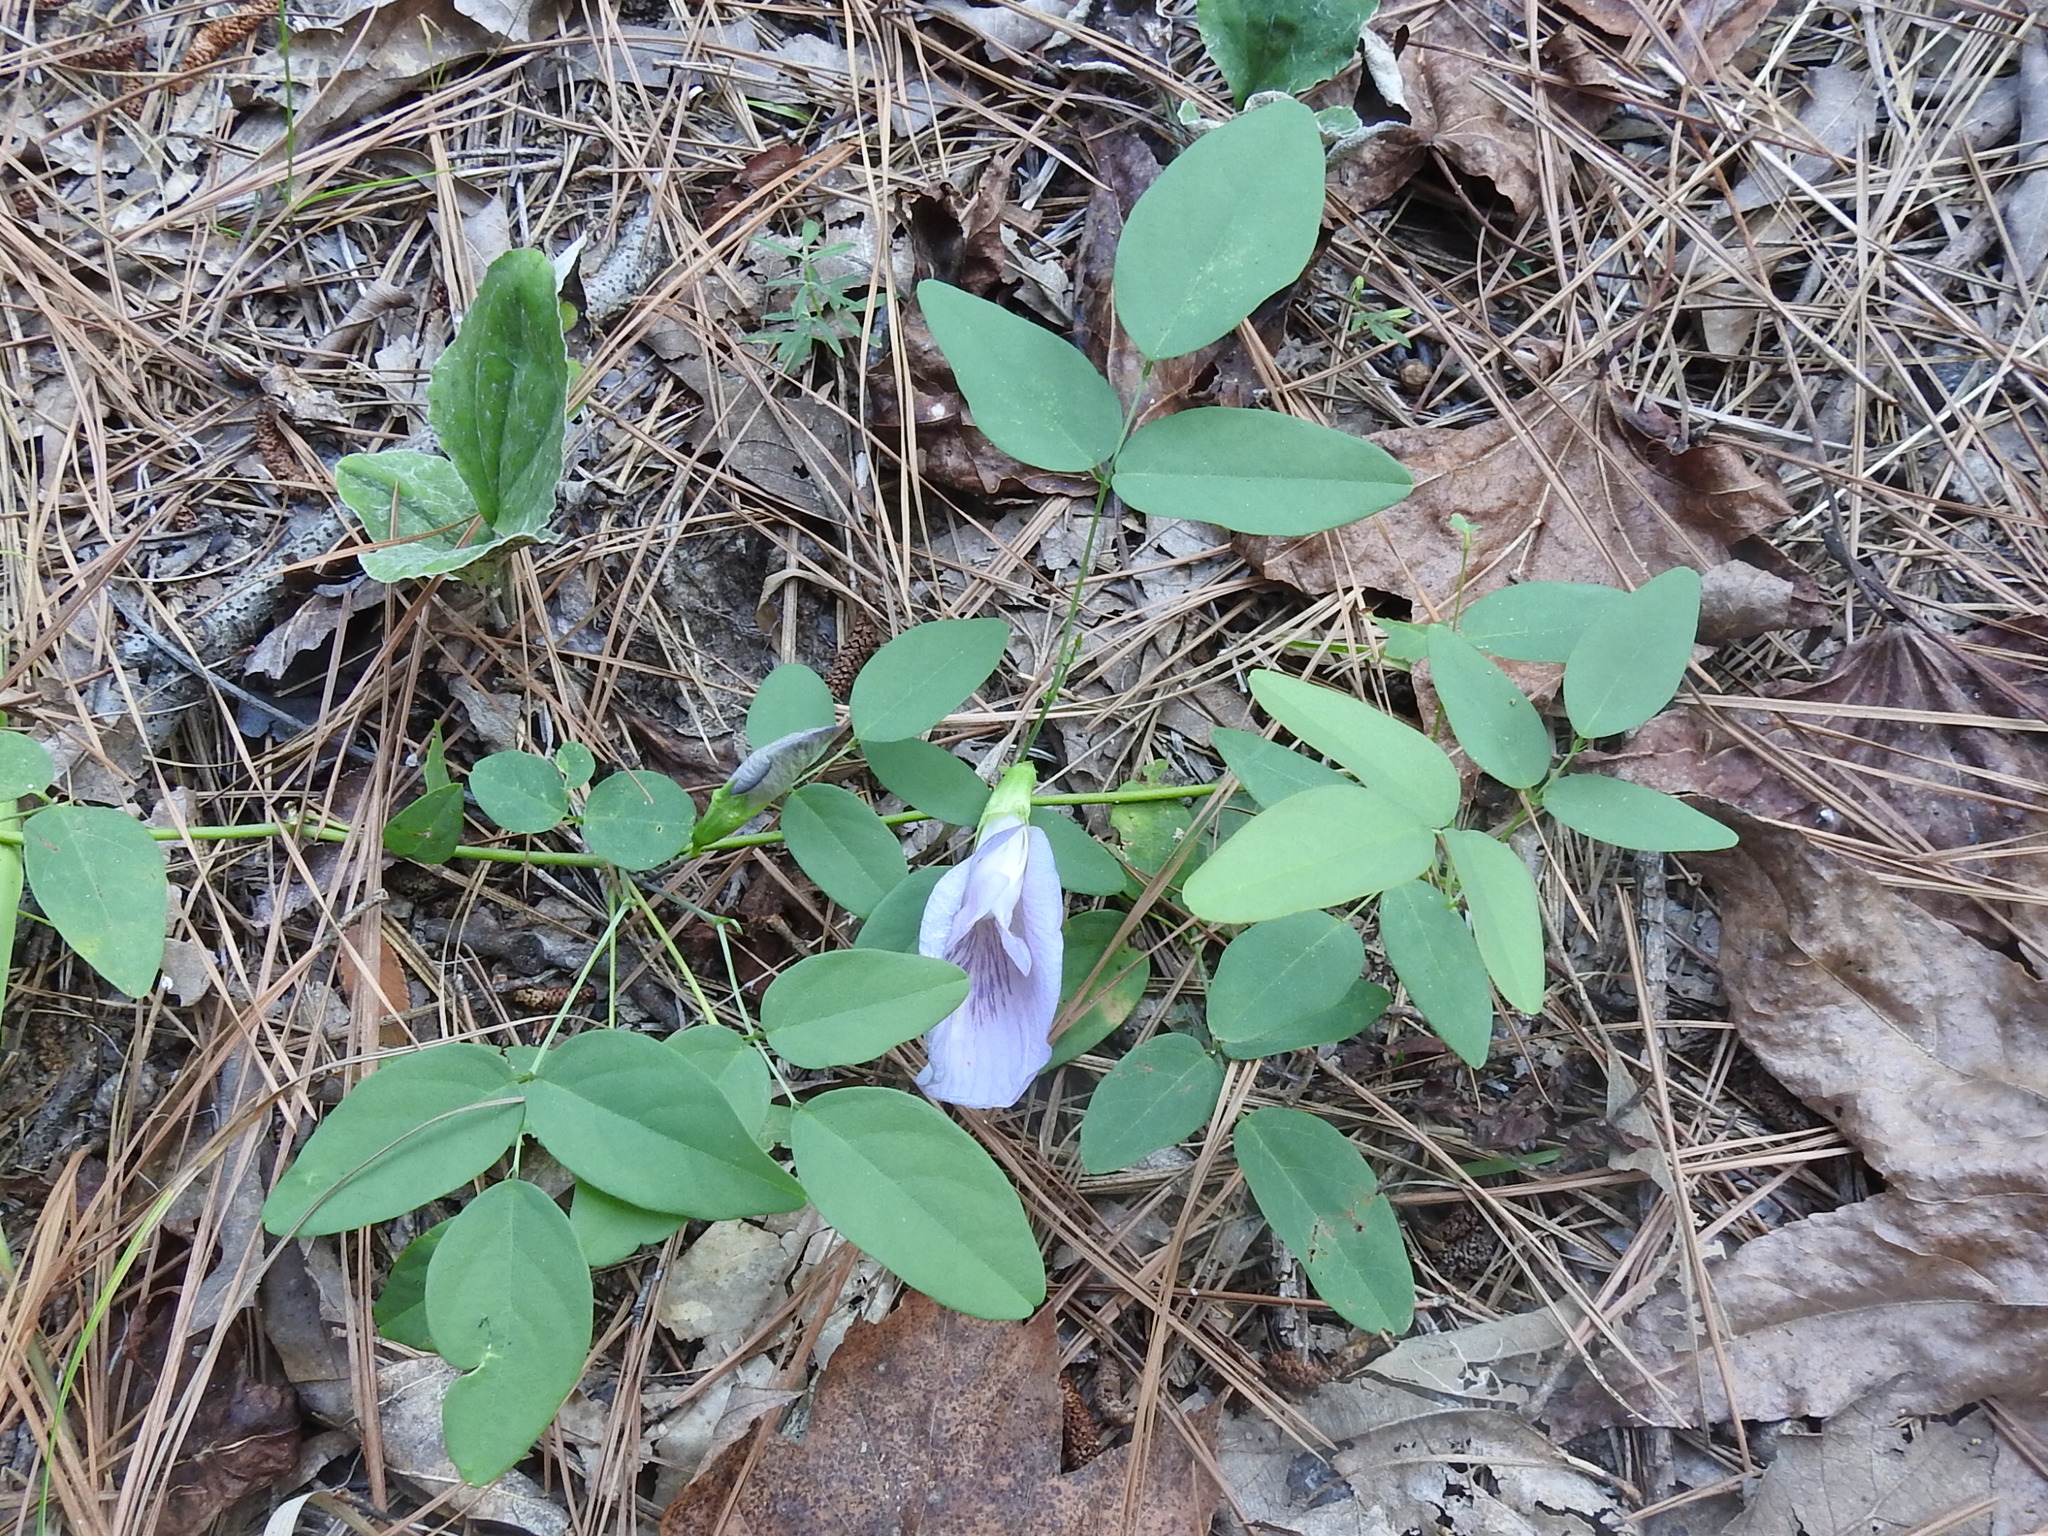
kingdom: Plantae
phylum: Tracheophyta
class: Magnoliopsida
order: Fabales
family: Fabaceae
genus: Clitoria
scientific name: Clitoria mariana
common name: Butterfly-pea
